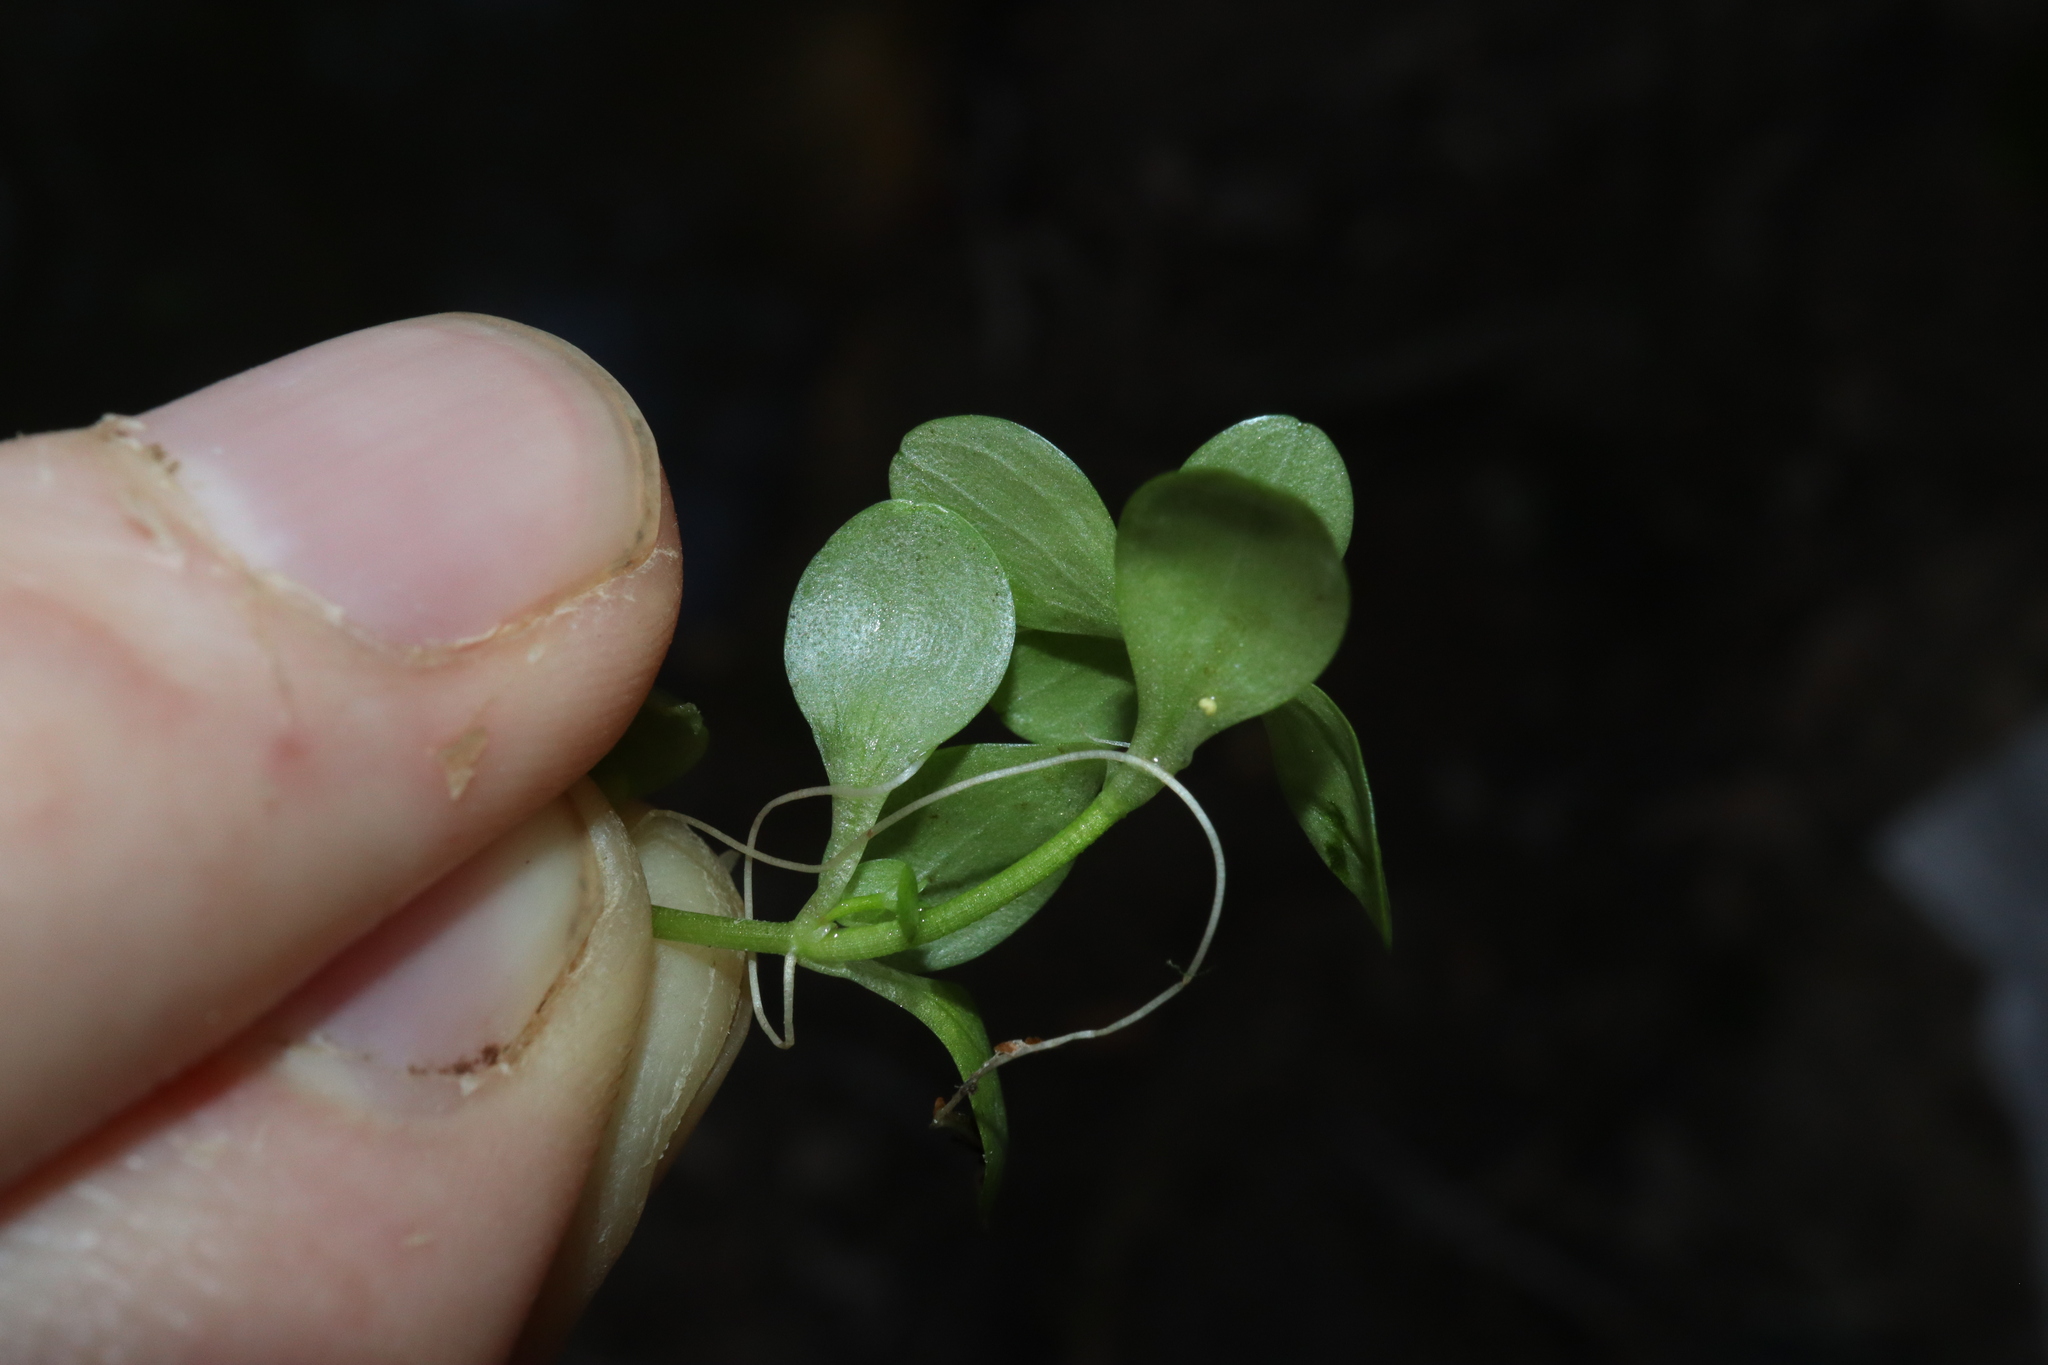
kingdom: Plantae
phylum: Tracheophyta
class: Magnoliopsida
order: Lamiales
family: Plantaginaceae
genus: Callitriche
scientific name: Callitriche stagnalis
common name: Common water-starwort
